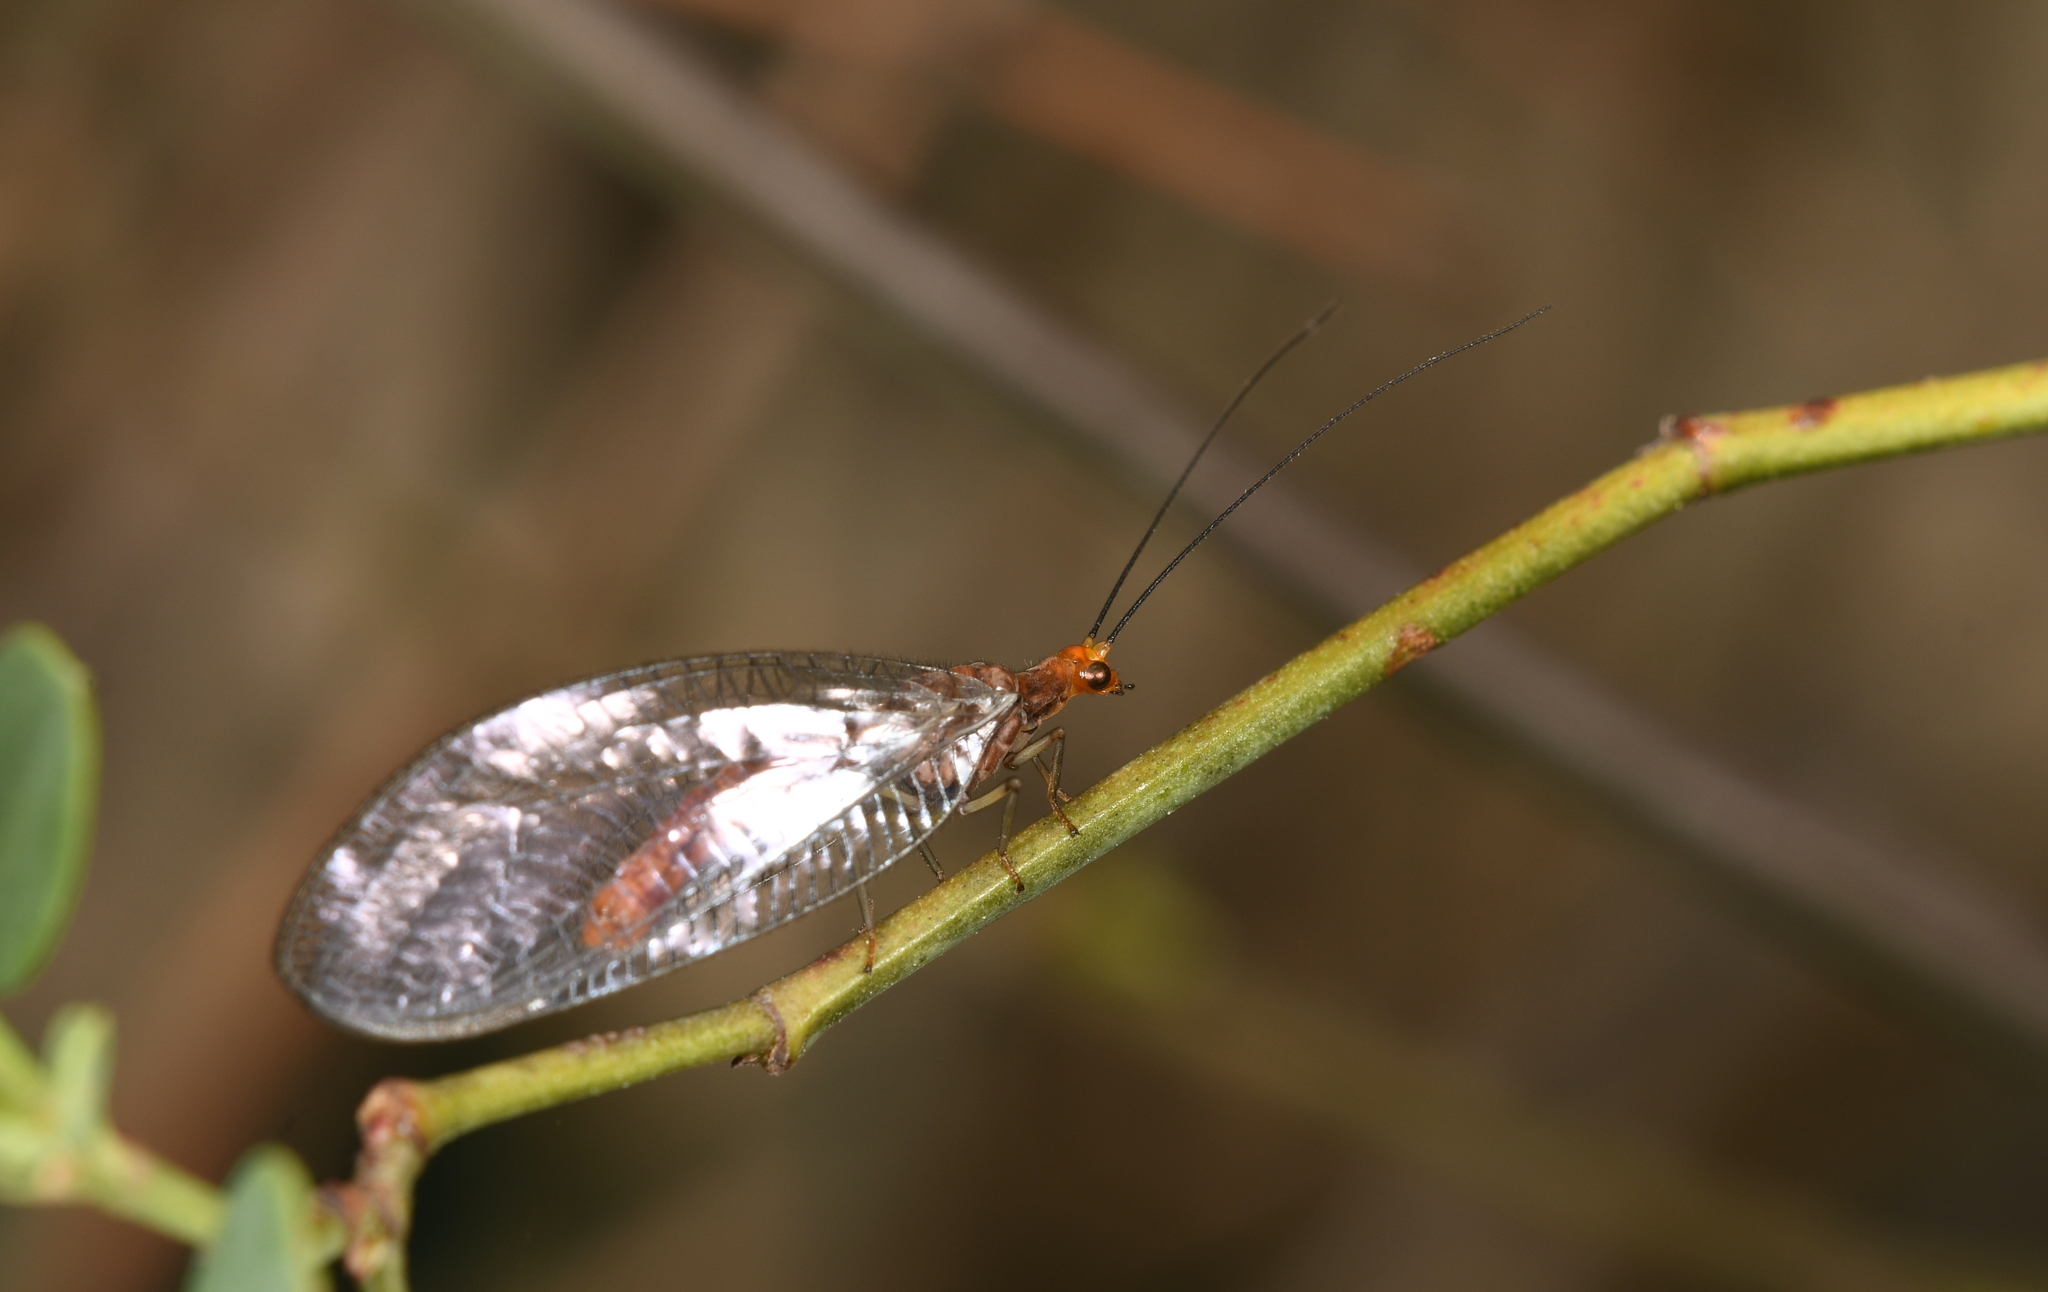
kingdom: Animalia
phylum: Arthropoda
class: Insecta
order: Neuroptera
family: Chrysopidae
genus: Nothochrysa
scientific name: Nothochrysa capitata
